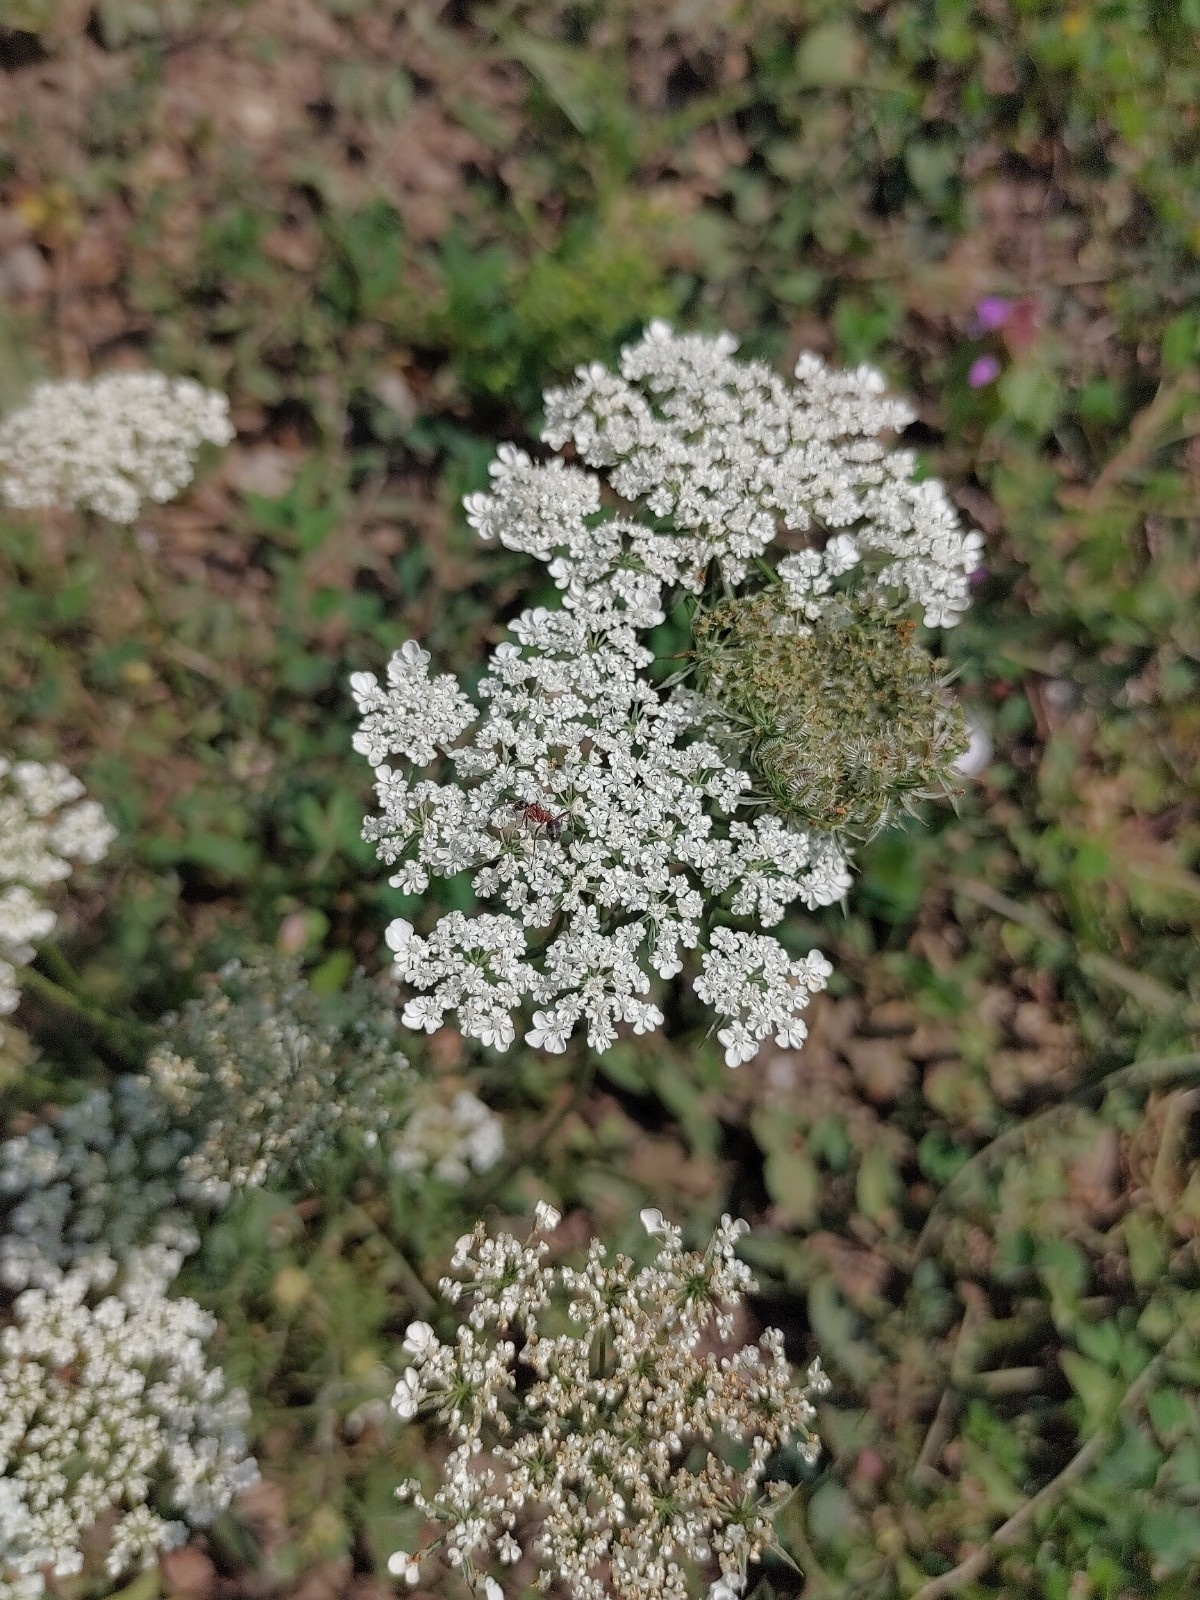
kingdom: Plantae
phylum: Tracheophyta
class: Magnoliopsida
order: Apiales
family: Apiaceae
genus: Daucus
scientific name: Daucus carota
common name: Wild carrot
